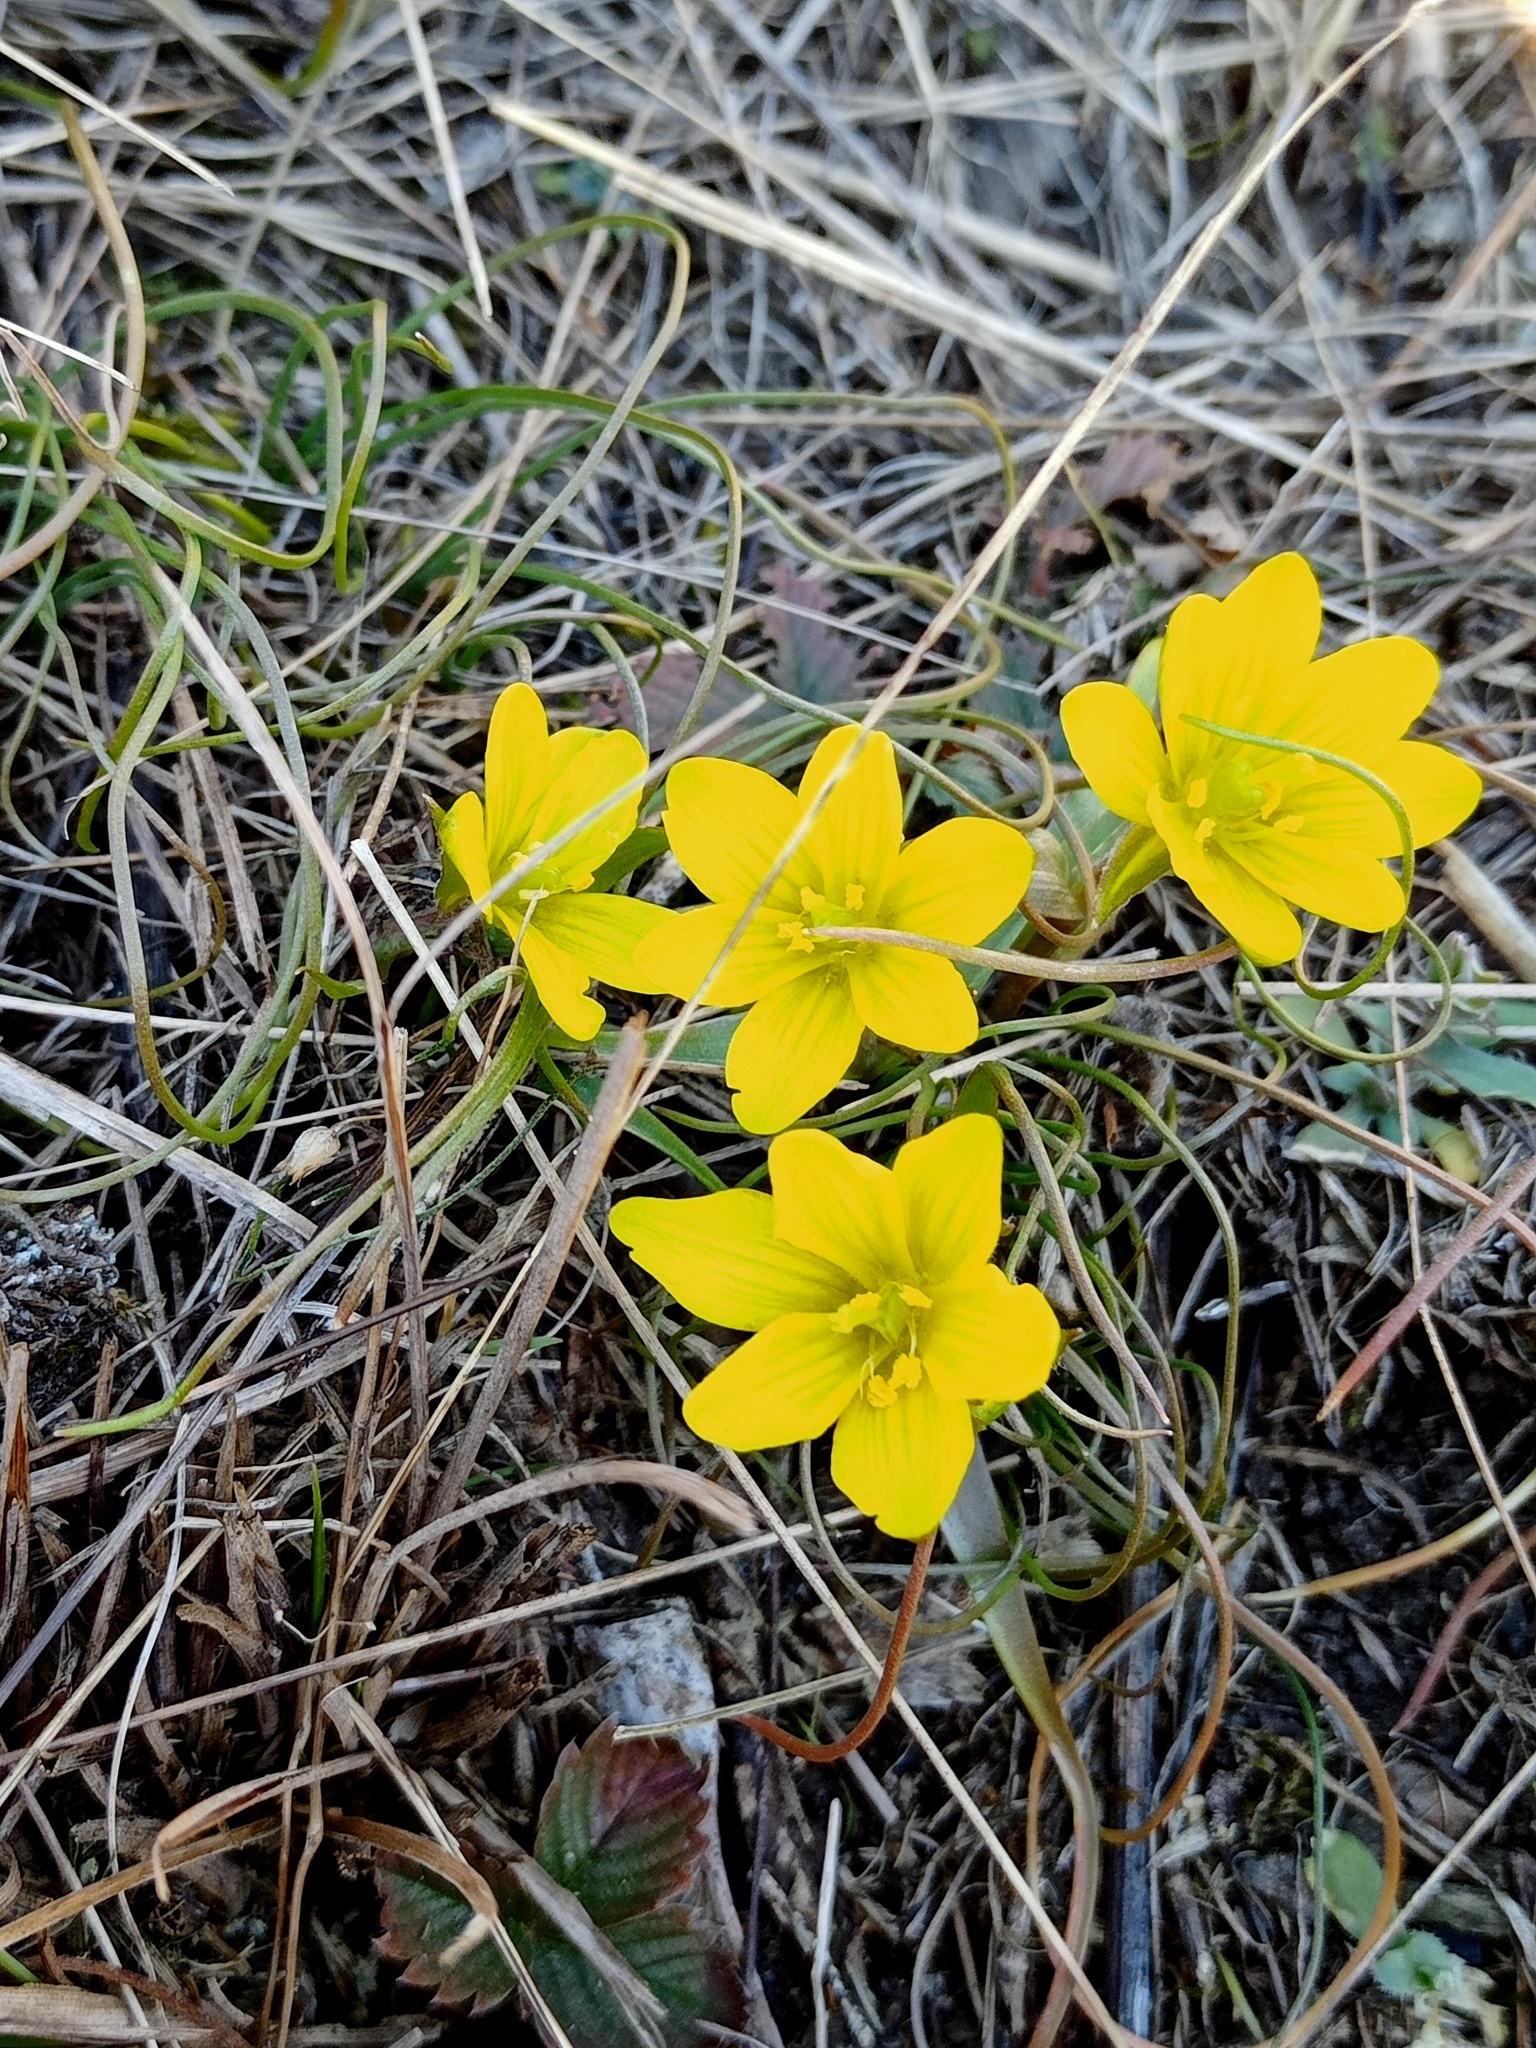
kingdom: Plantae
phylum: Tracheophyta
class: Liliopsida
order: Liliales
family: Liliaceae
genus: Gagea
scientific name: Gagea bohemica
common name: Early star-of-bethlehem
